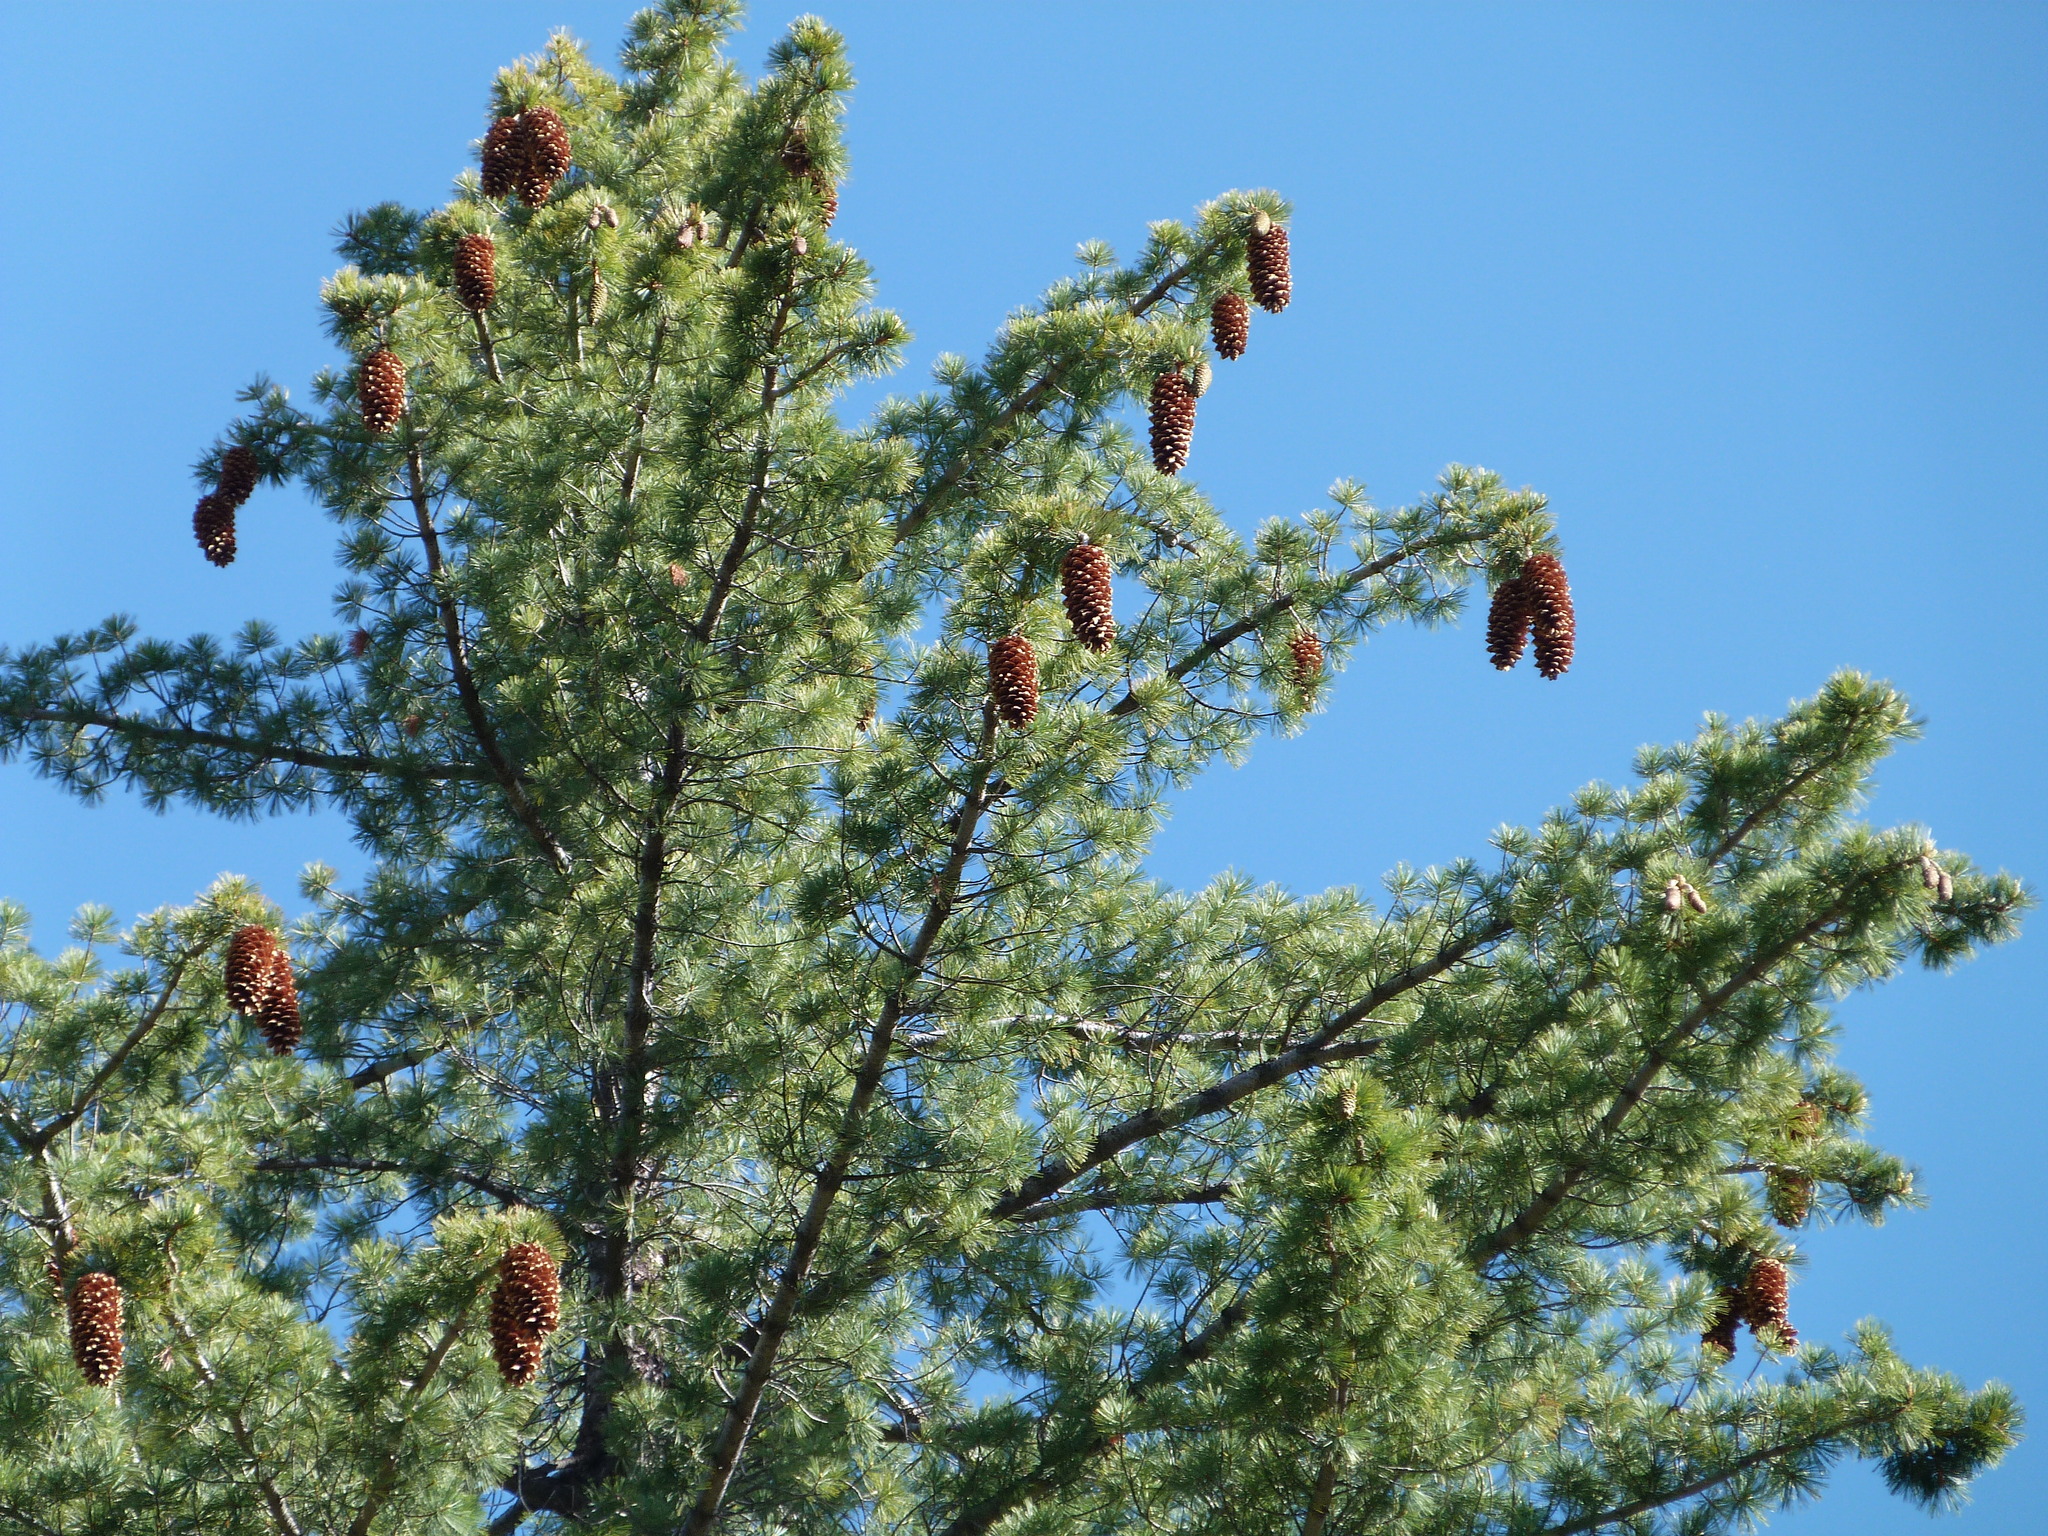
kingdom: Plantae
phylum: Tracheophyta
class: Pinopsida
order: Pinales
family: Pinaceae
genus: Pinus
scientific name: Pinus lambertiana
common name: Sugar pine
